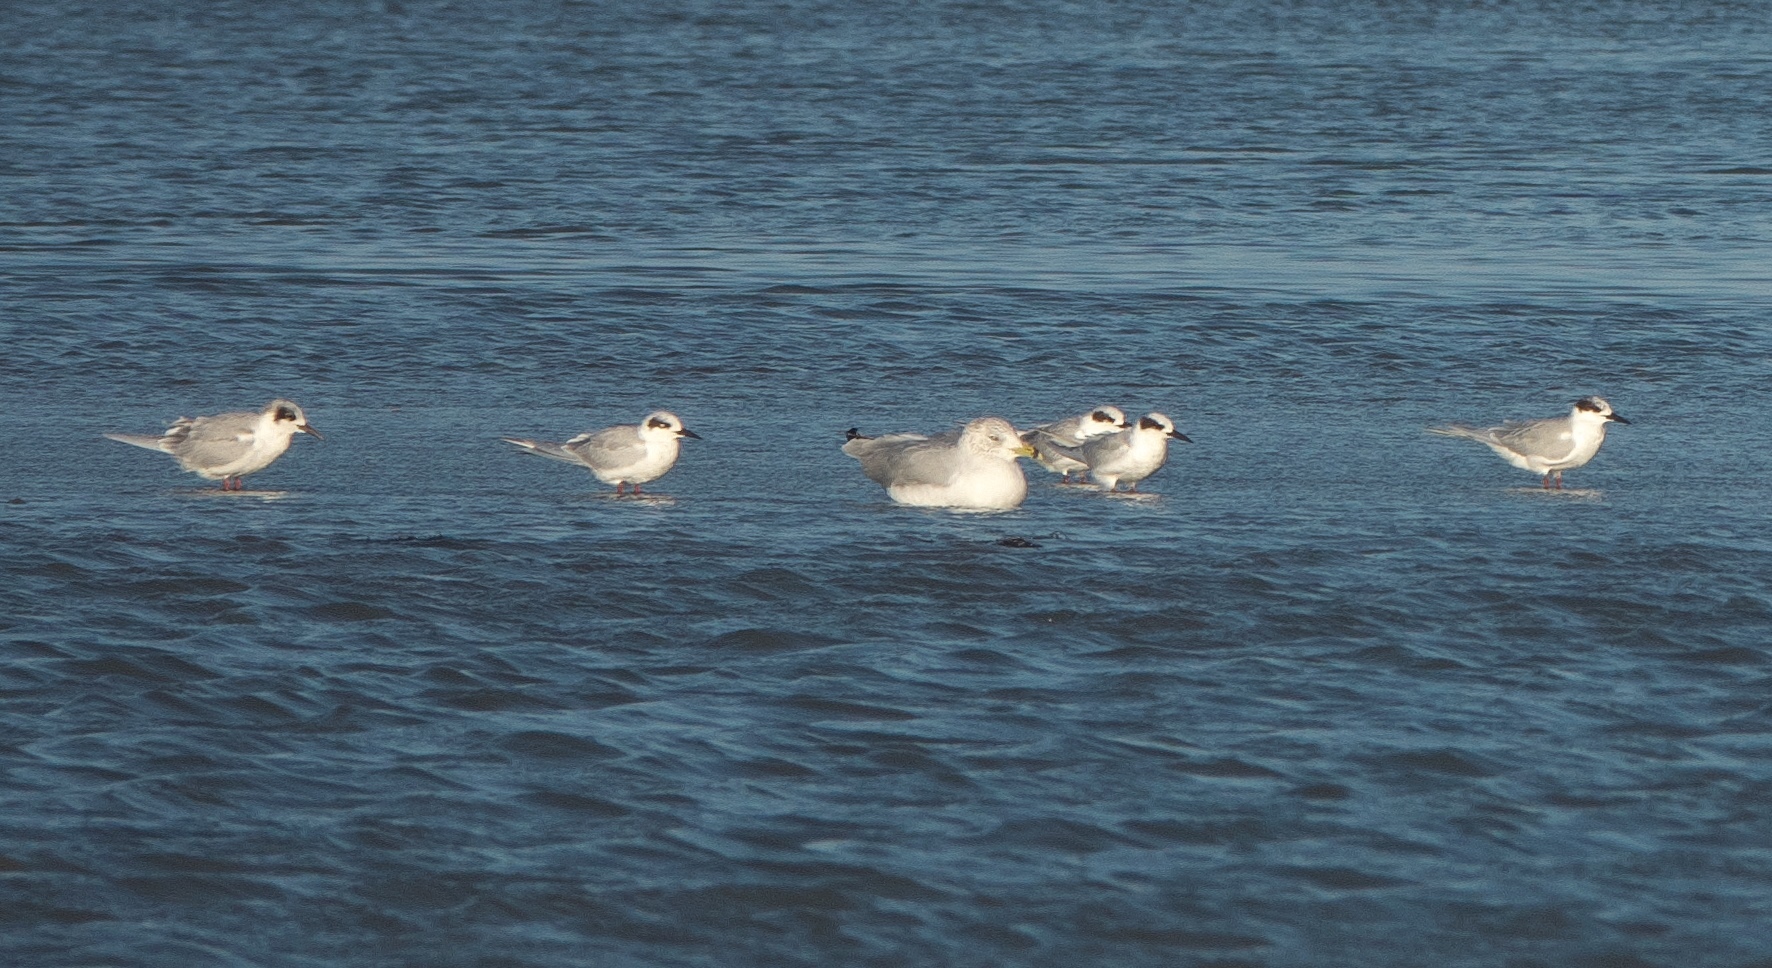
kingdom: Animalia
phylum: Chordata
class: Aves
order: Charadriiformes
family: Laridae
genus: Sterna
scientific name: Sterna forsteri
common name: Forster's tern
